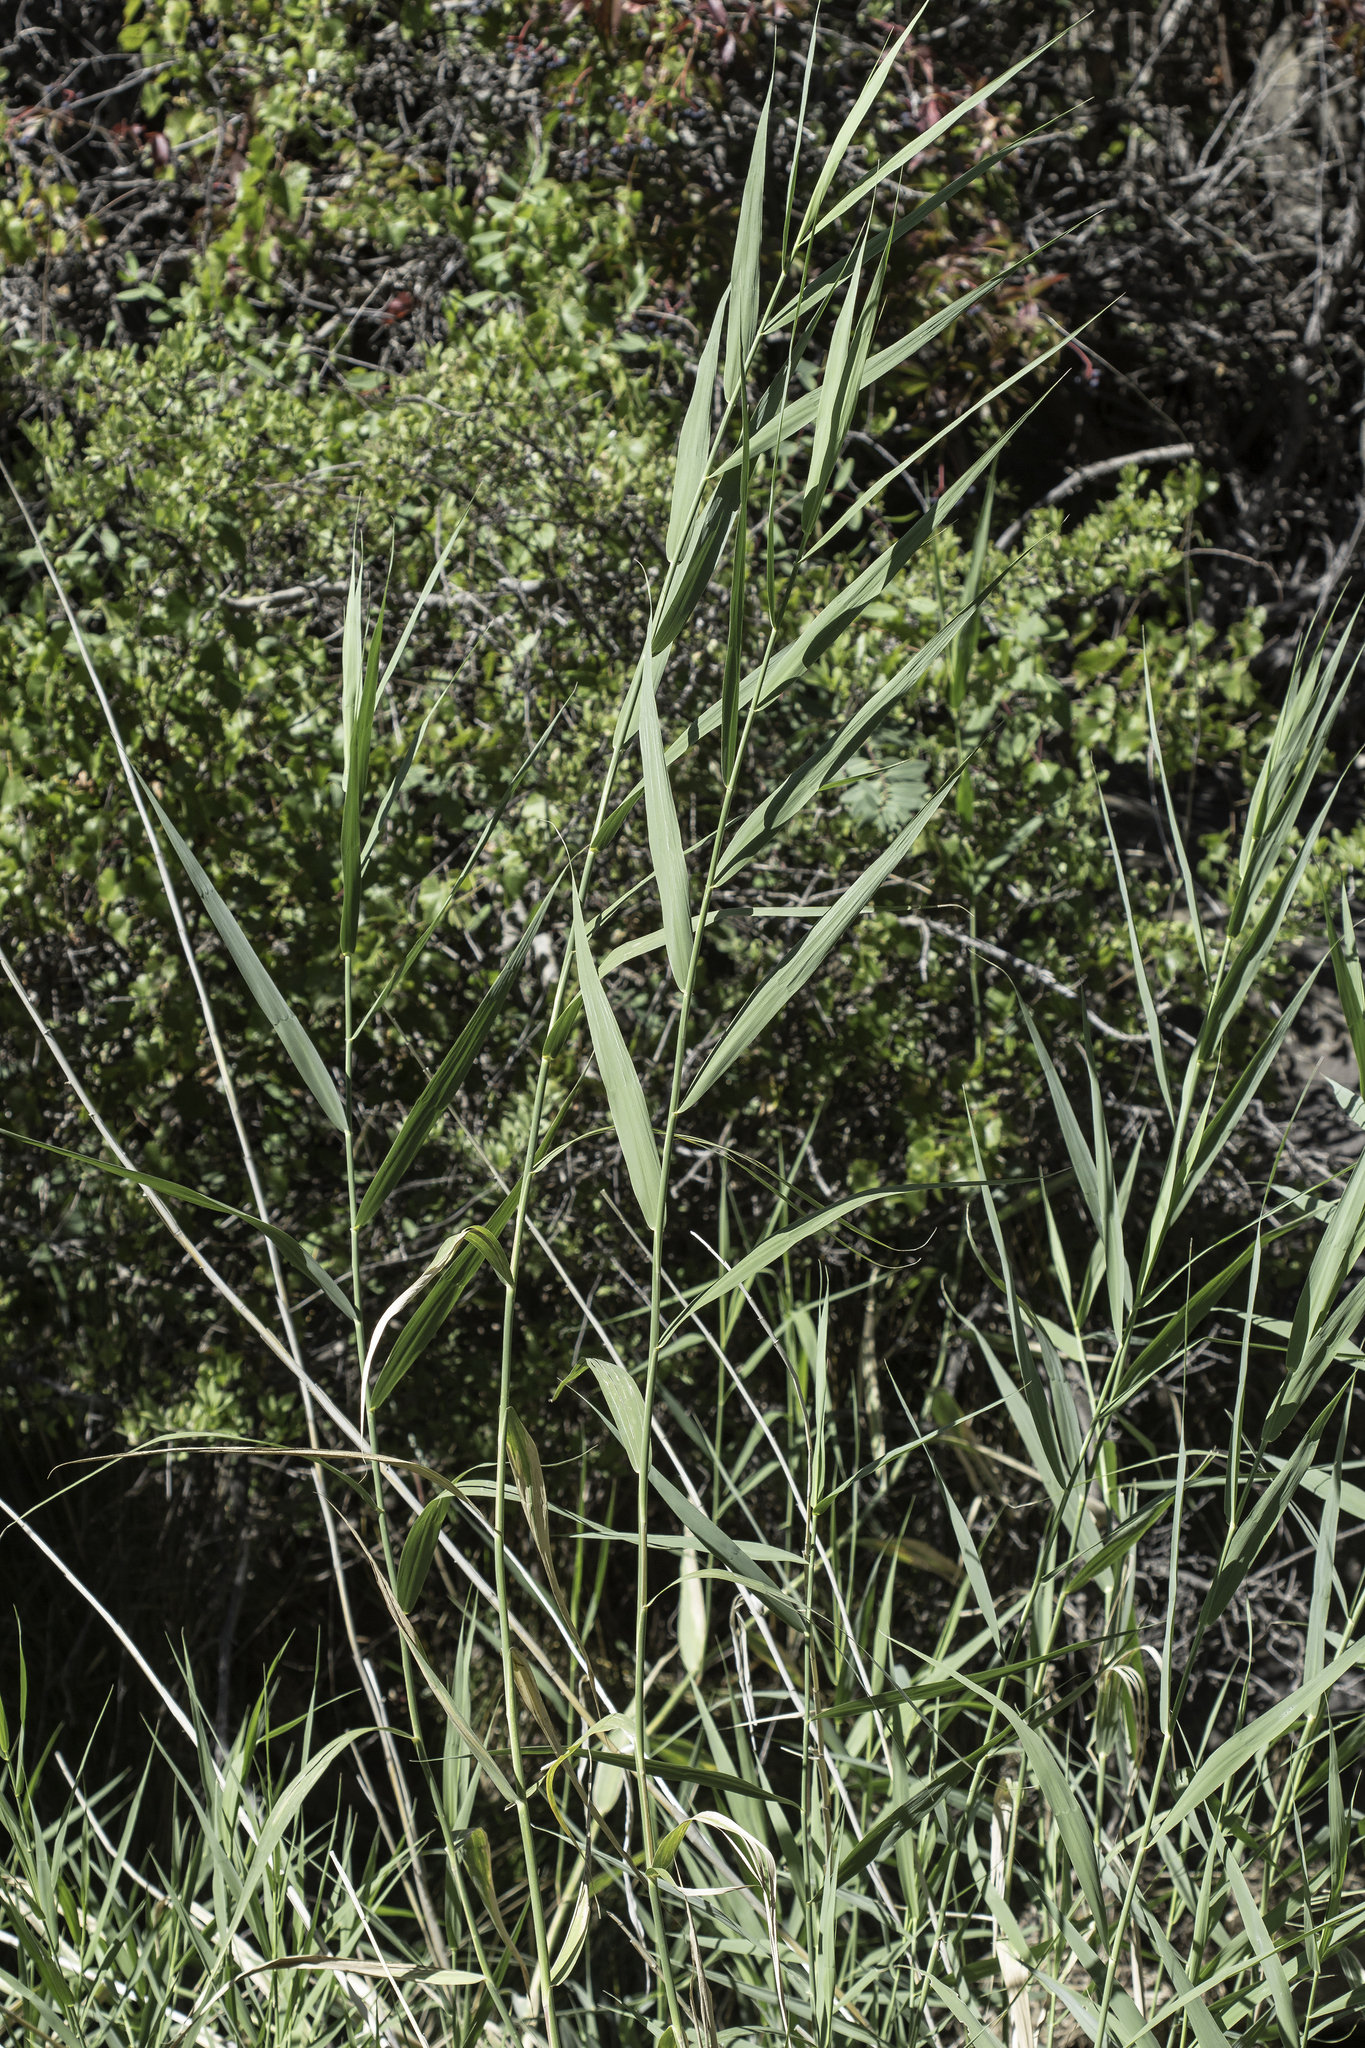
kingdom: Plantae
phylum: Tracheophyta
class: Liliopsida
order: Poales
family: Poaceae
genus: Phragmites
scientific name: Phragmites australis
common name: Common reed
